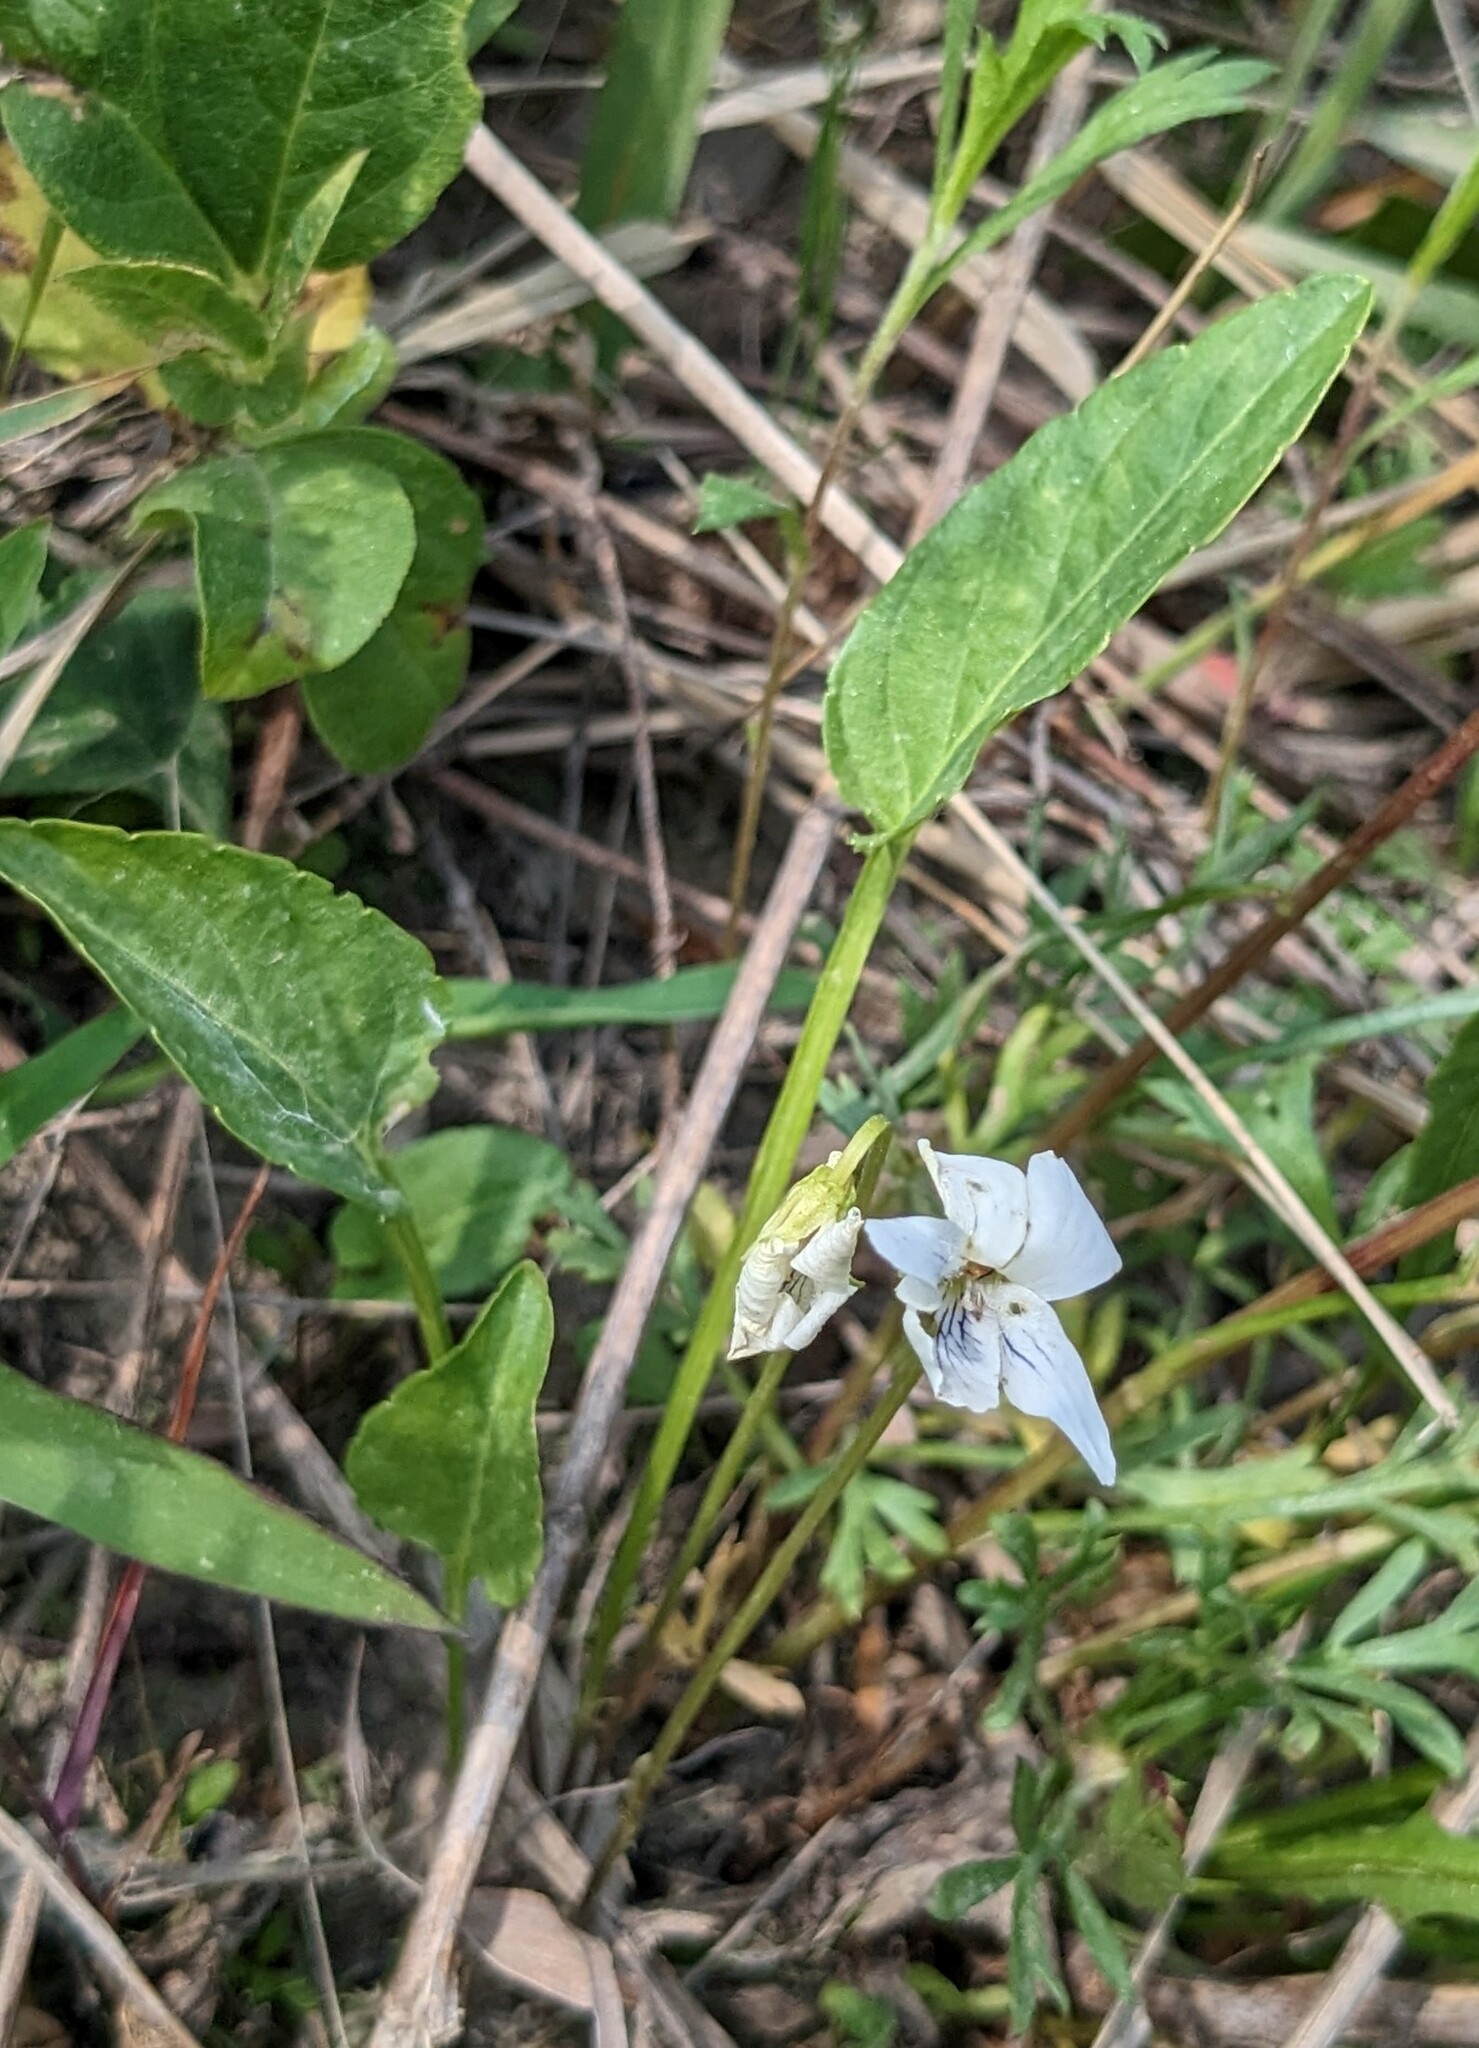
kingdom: Plantae
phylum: Tracheophyta
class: Magnoliopsida
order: Malpighiales
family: Violaceae
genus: Viola
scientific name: Viola patrinii
